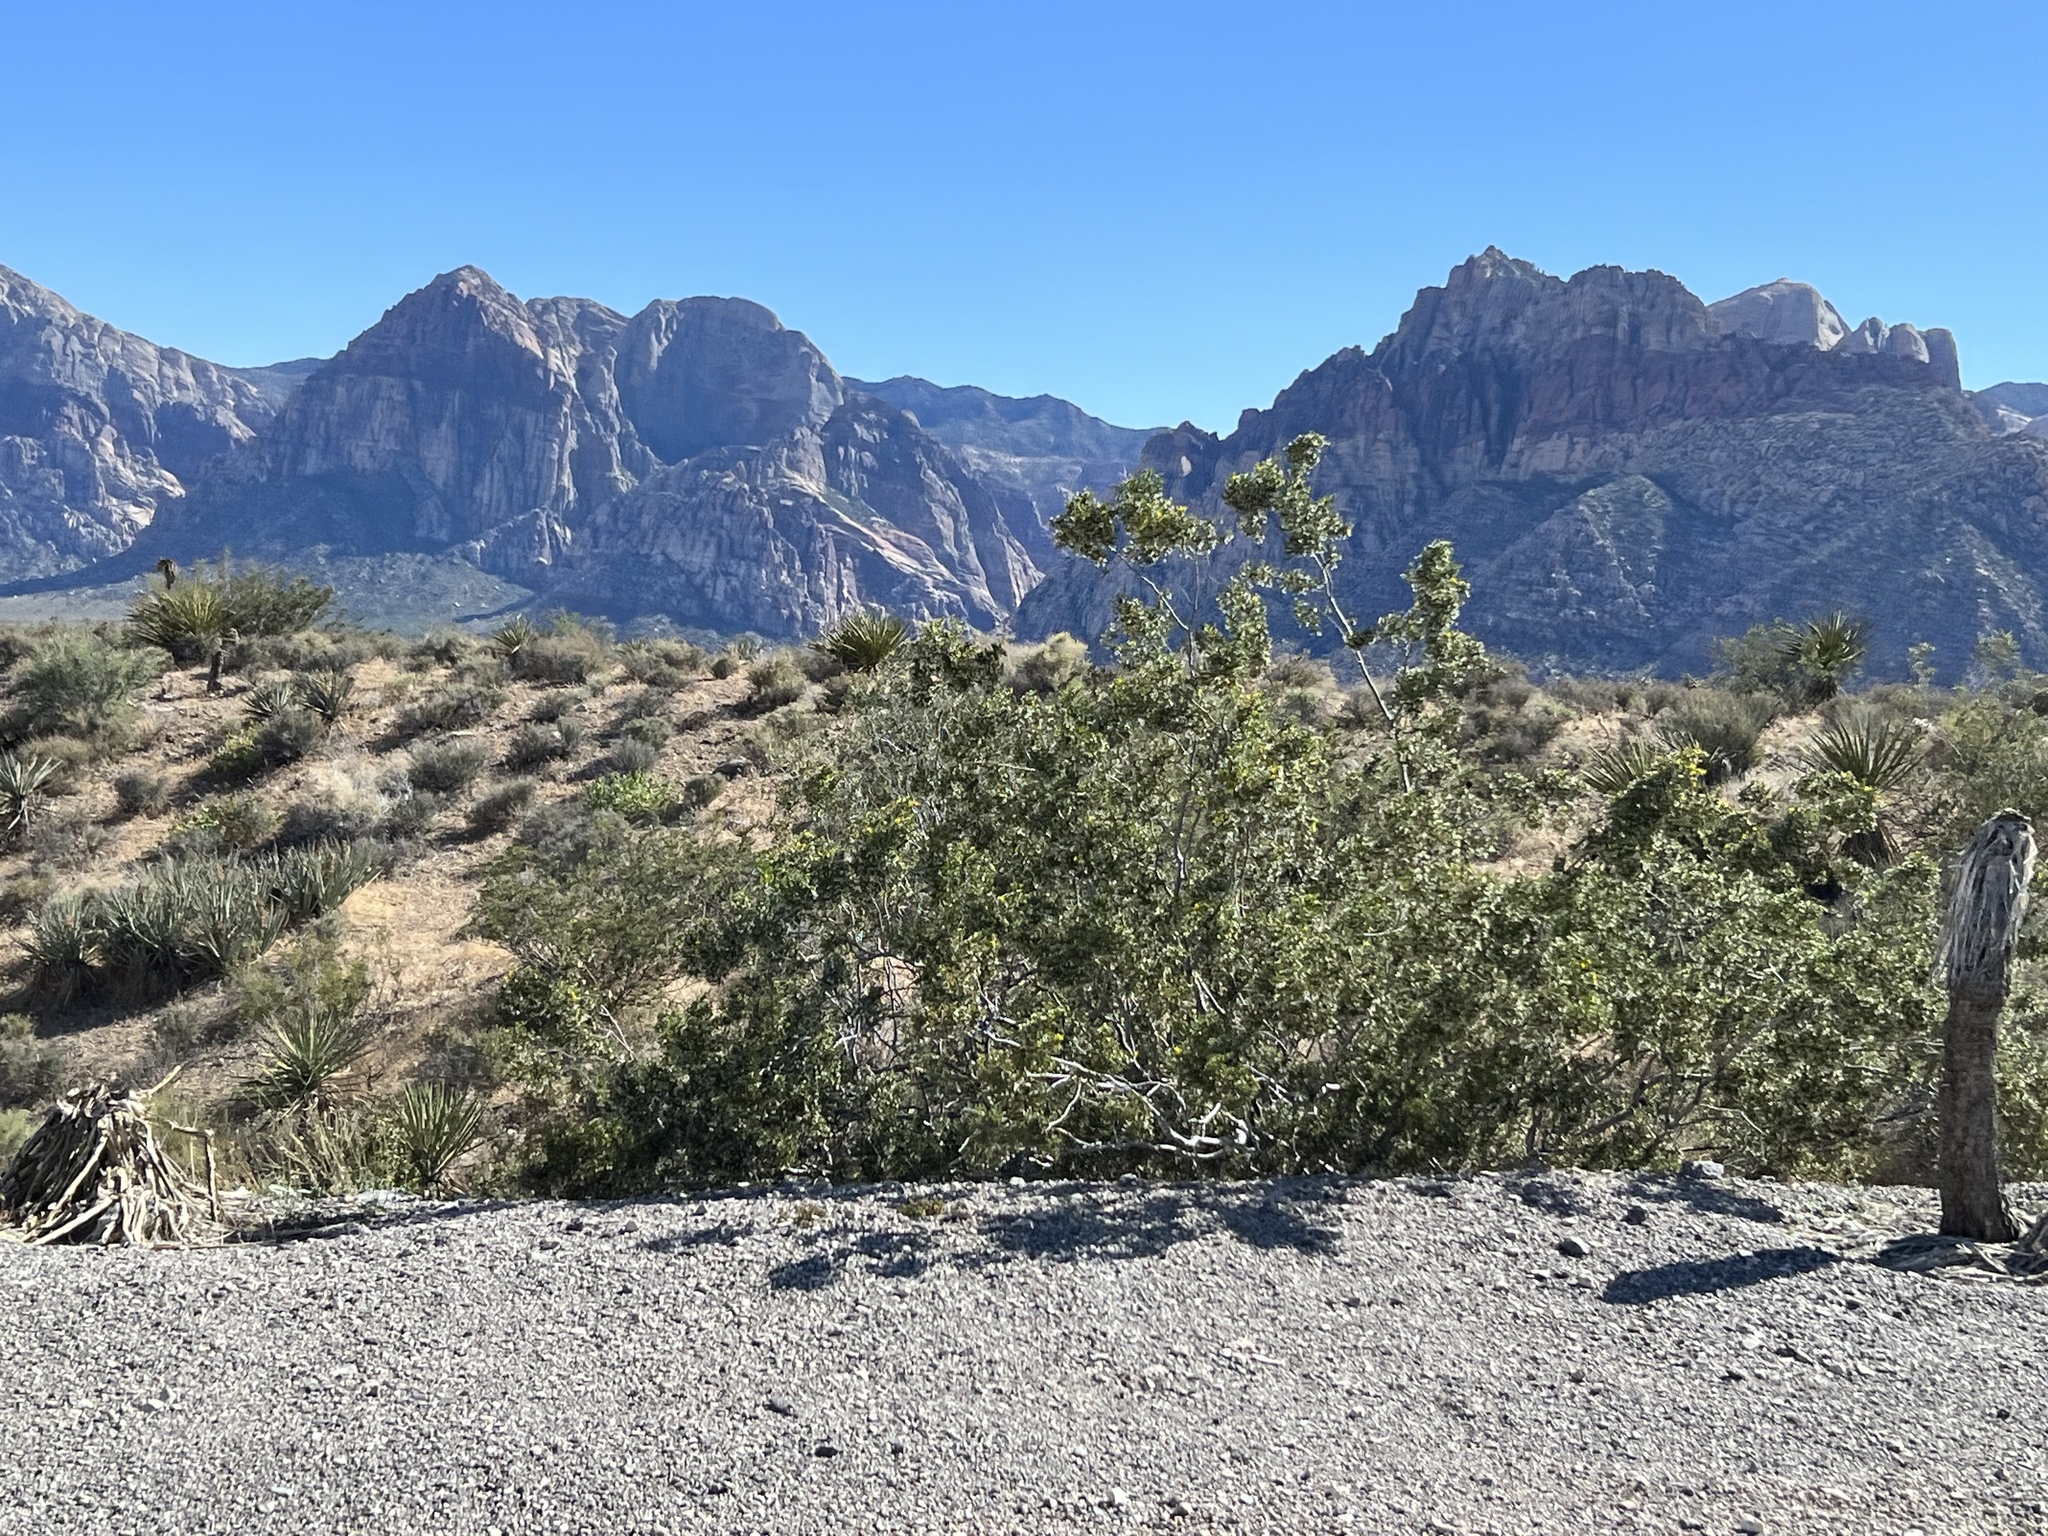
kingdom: Plantae
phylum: Tracheophyta
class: Magnoliopsida
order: Zygophyllales
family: Zygophyllaceae
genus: Larrea
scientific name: Larrea tridentata
